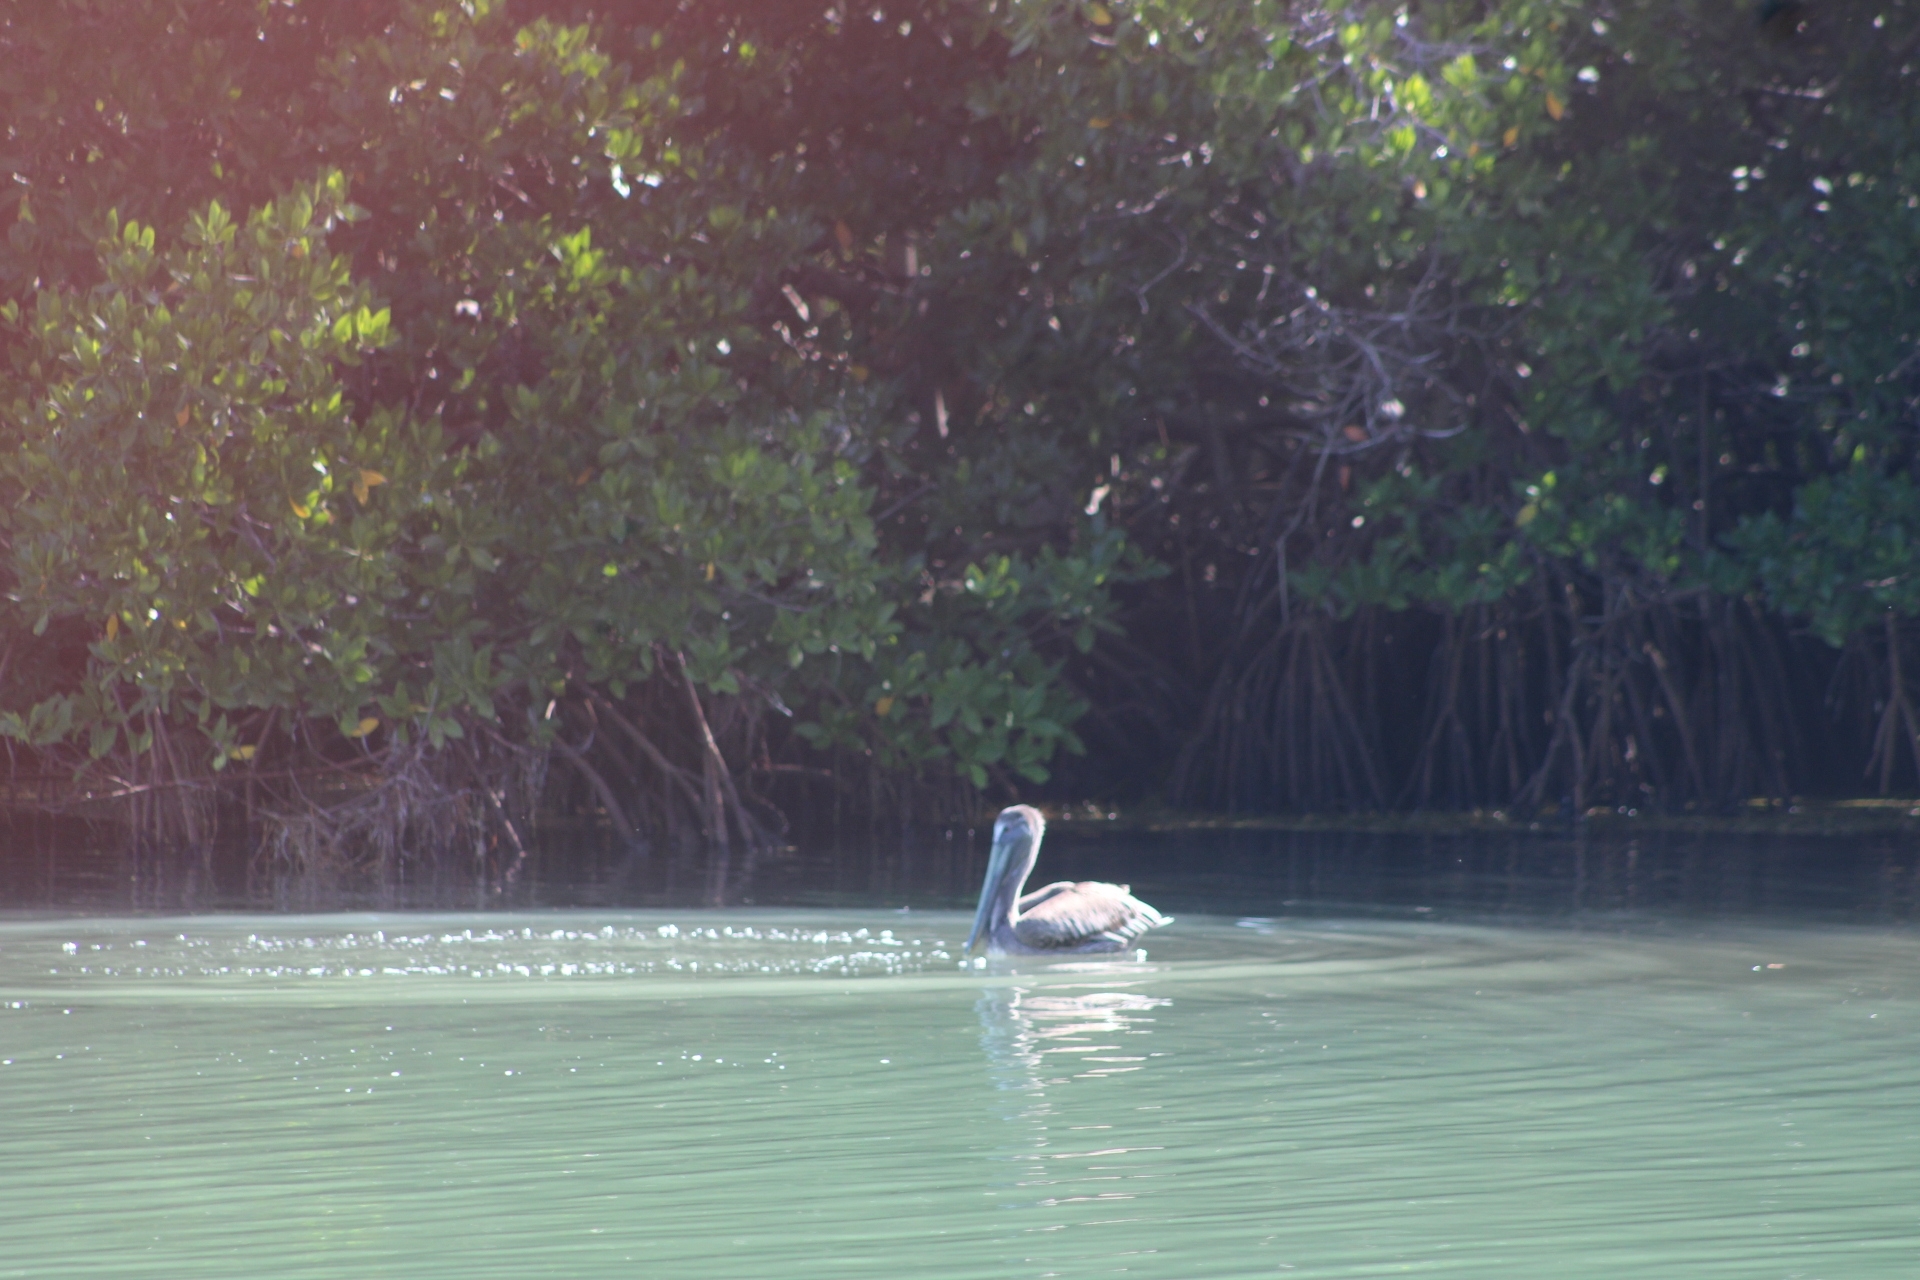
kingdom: Animalia
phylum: Chordata
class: Aves
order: Pelecaniformes
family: Pelecanidae
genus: Pelecanus
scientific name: Pelecanus occidentalis
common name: Brown pelican
